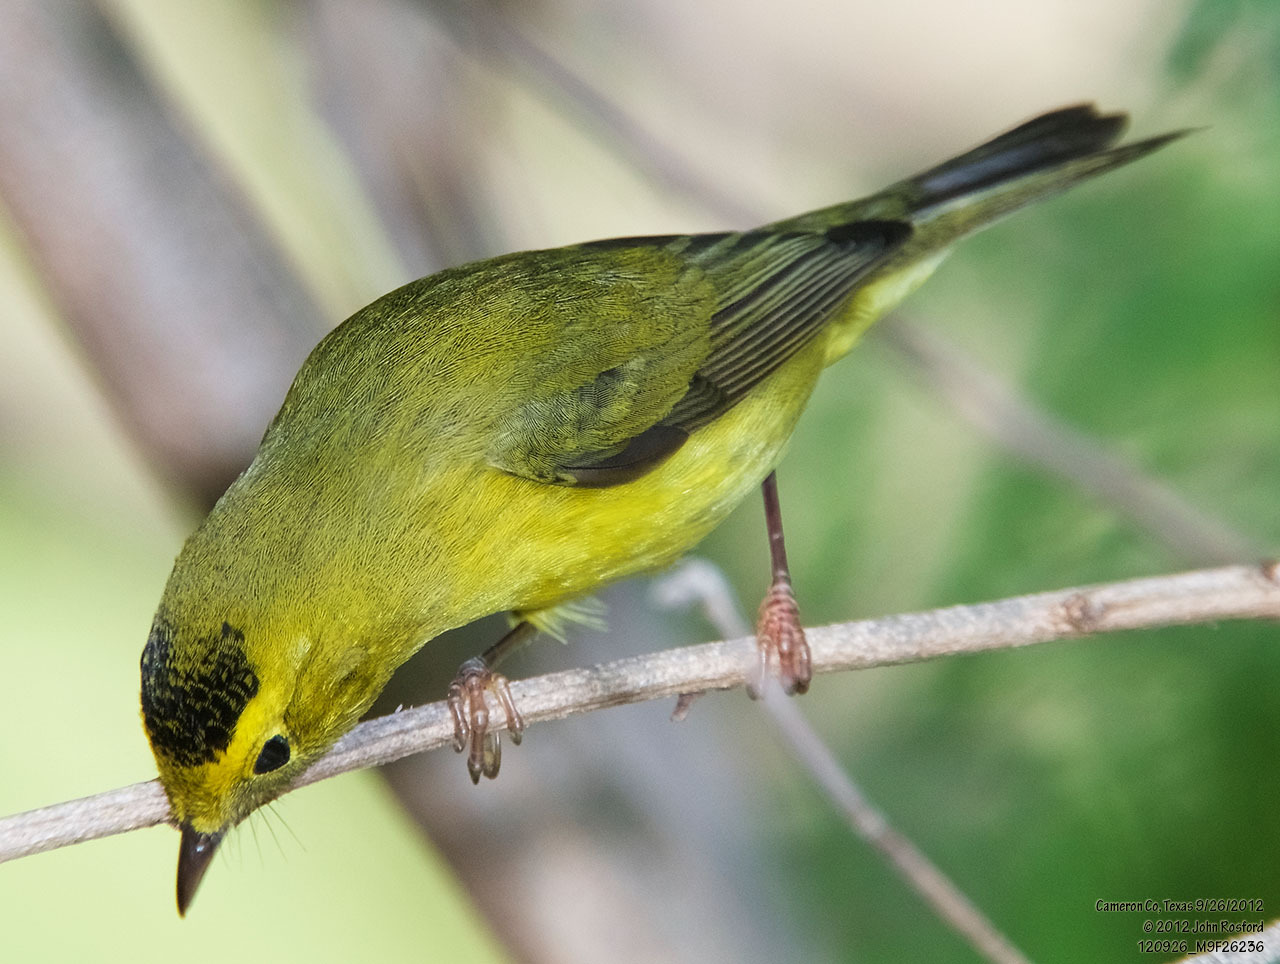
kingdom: Animalia
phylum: Chordata
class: Aves
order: Passeriformes
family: Parulidae
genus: Cardellina
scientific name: Cardellina pusilla
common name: Wilson's warbler
